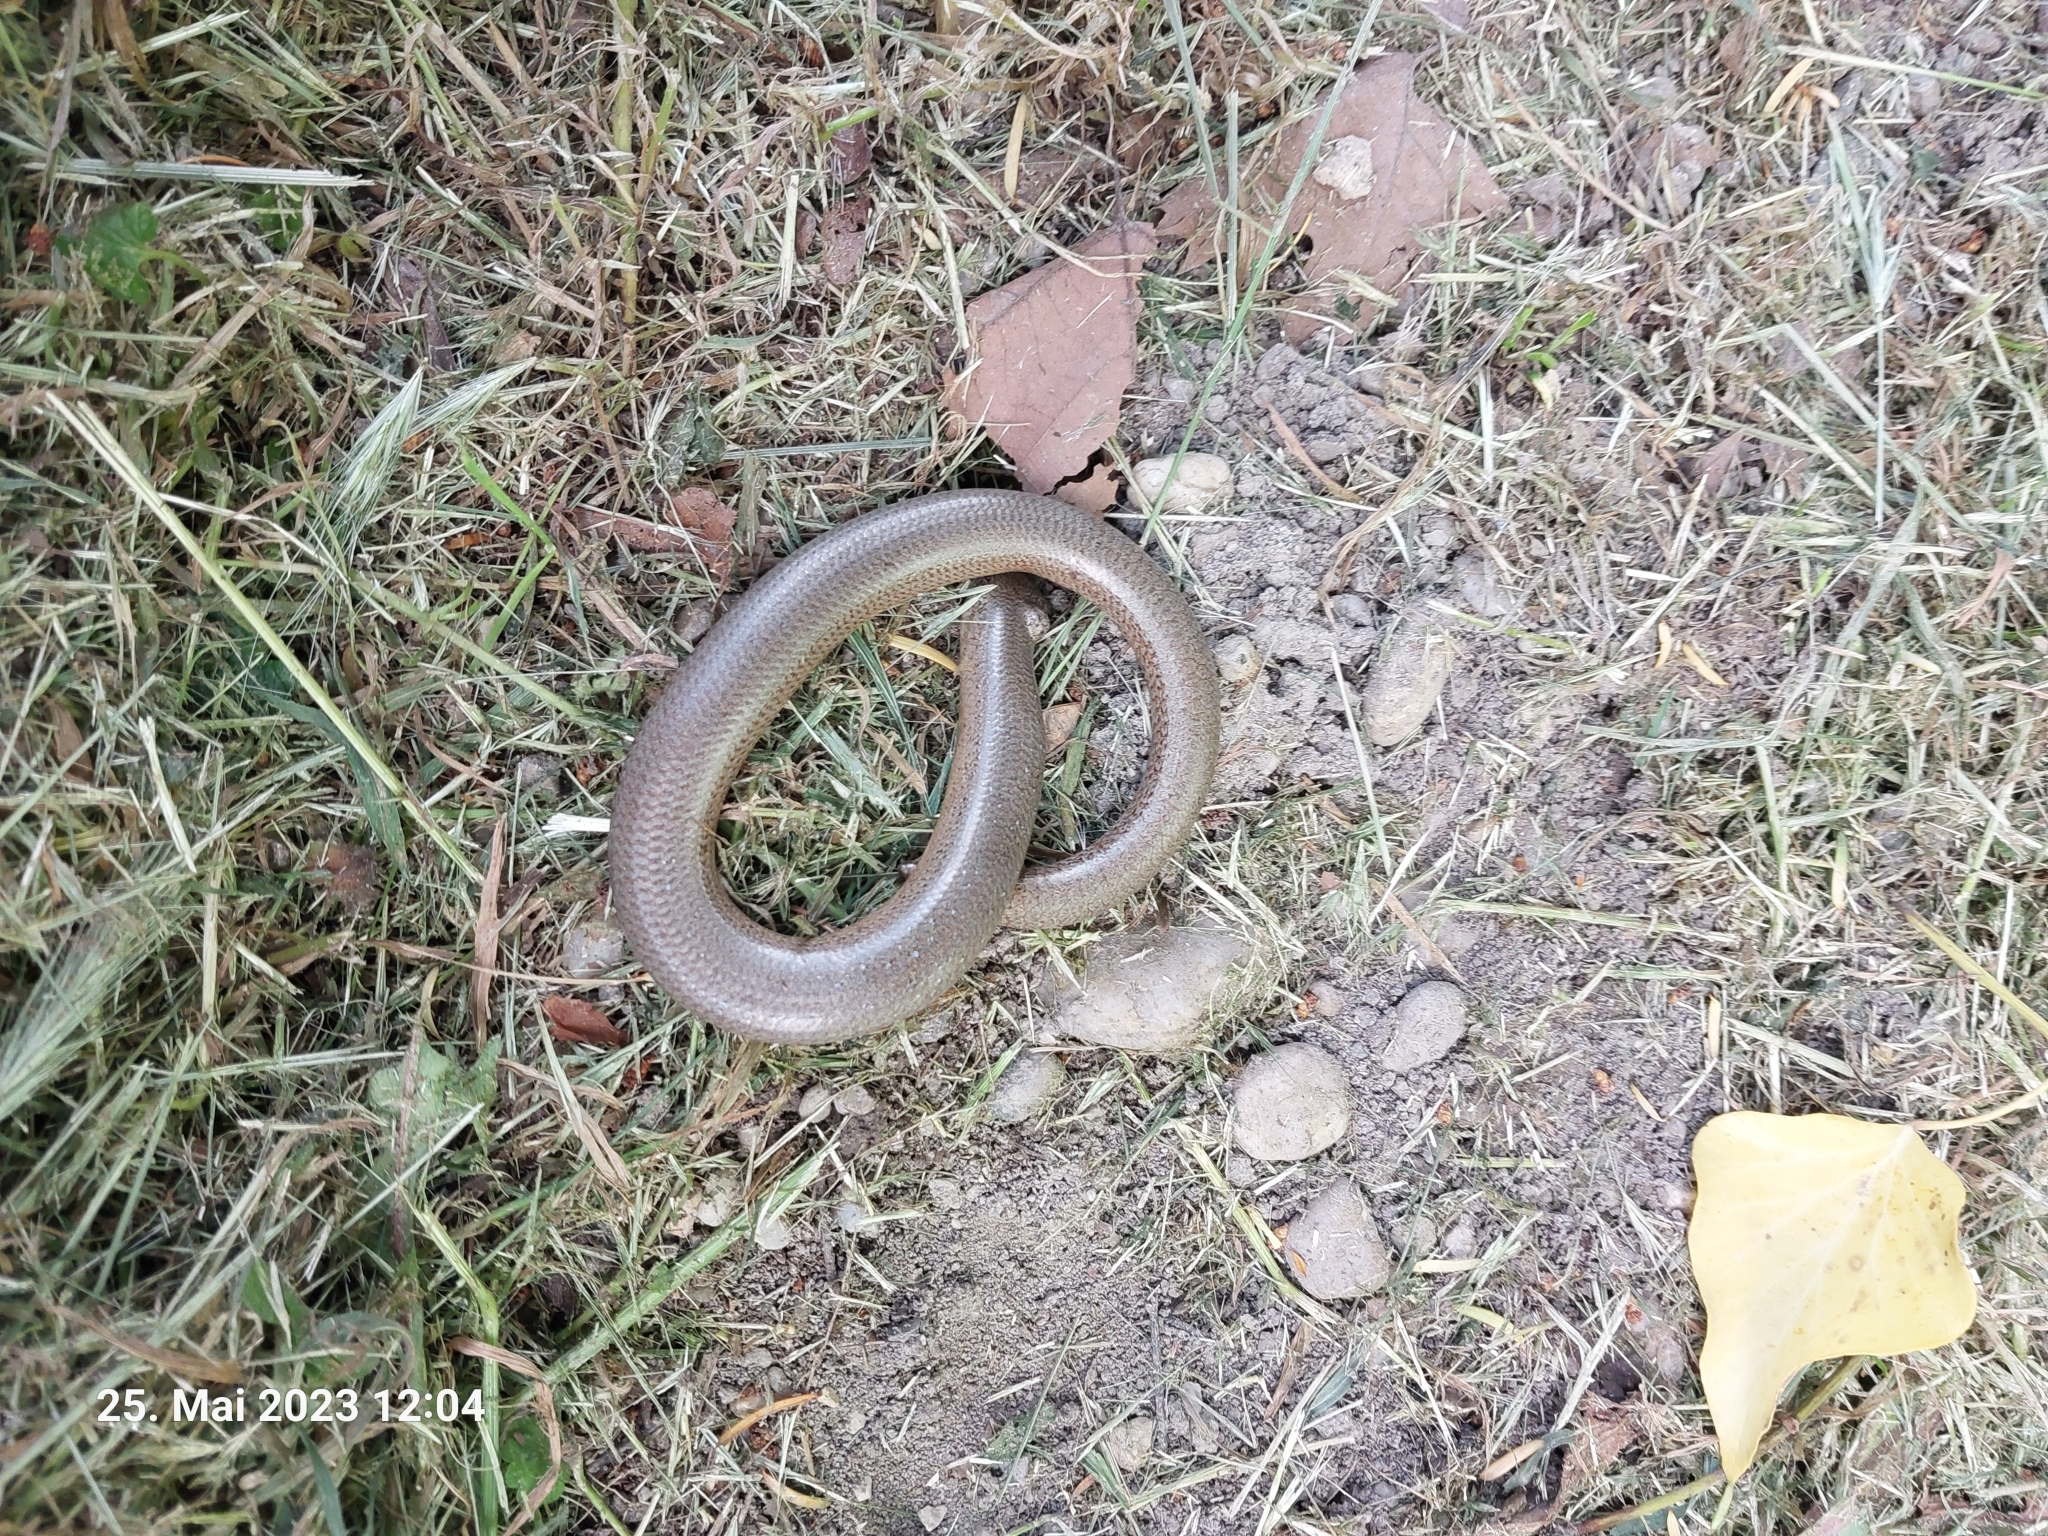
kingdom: Animalia
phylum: Chordata
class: Squamata
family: Anguidae
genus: Anguis
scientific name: Anguis fragilis
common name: Slow worm
